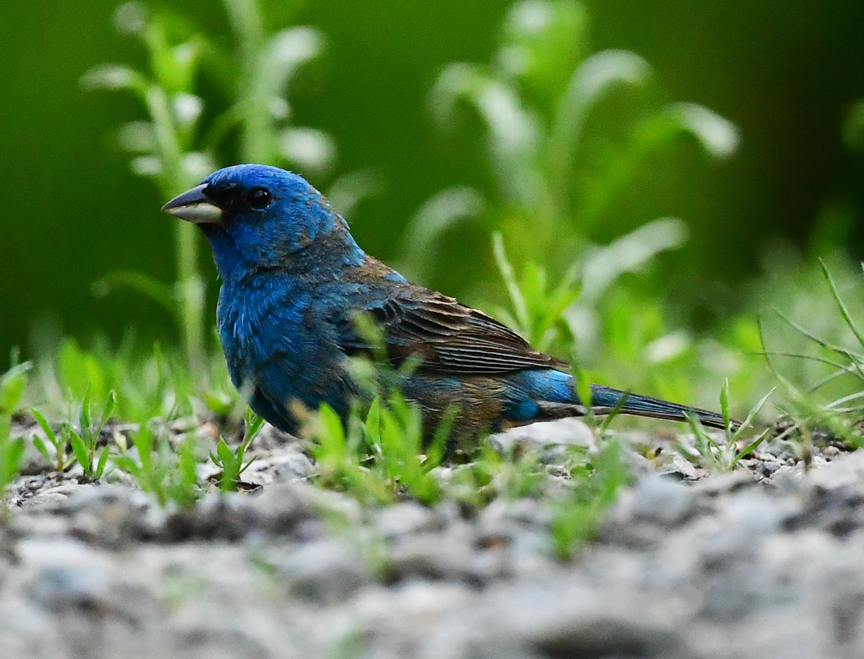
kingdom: Animalia
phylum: Chordata
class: Aves
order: Passeriformes
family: Cardinalidae
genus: Passerina
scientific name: Passerina cyanea
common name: Indigo bunting
